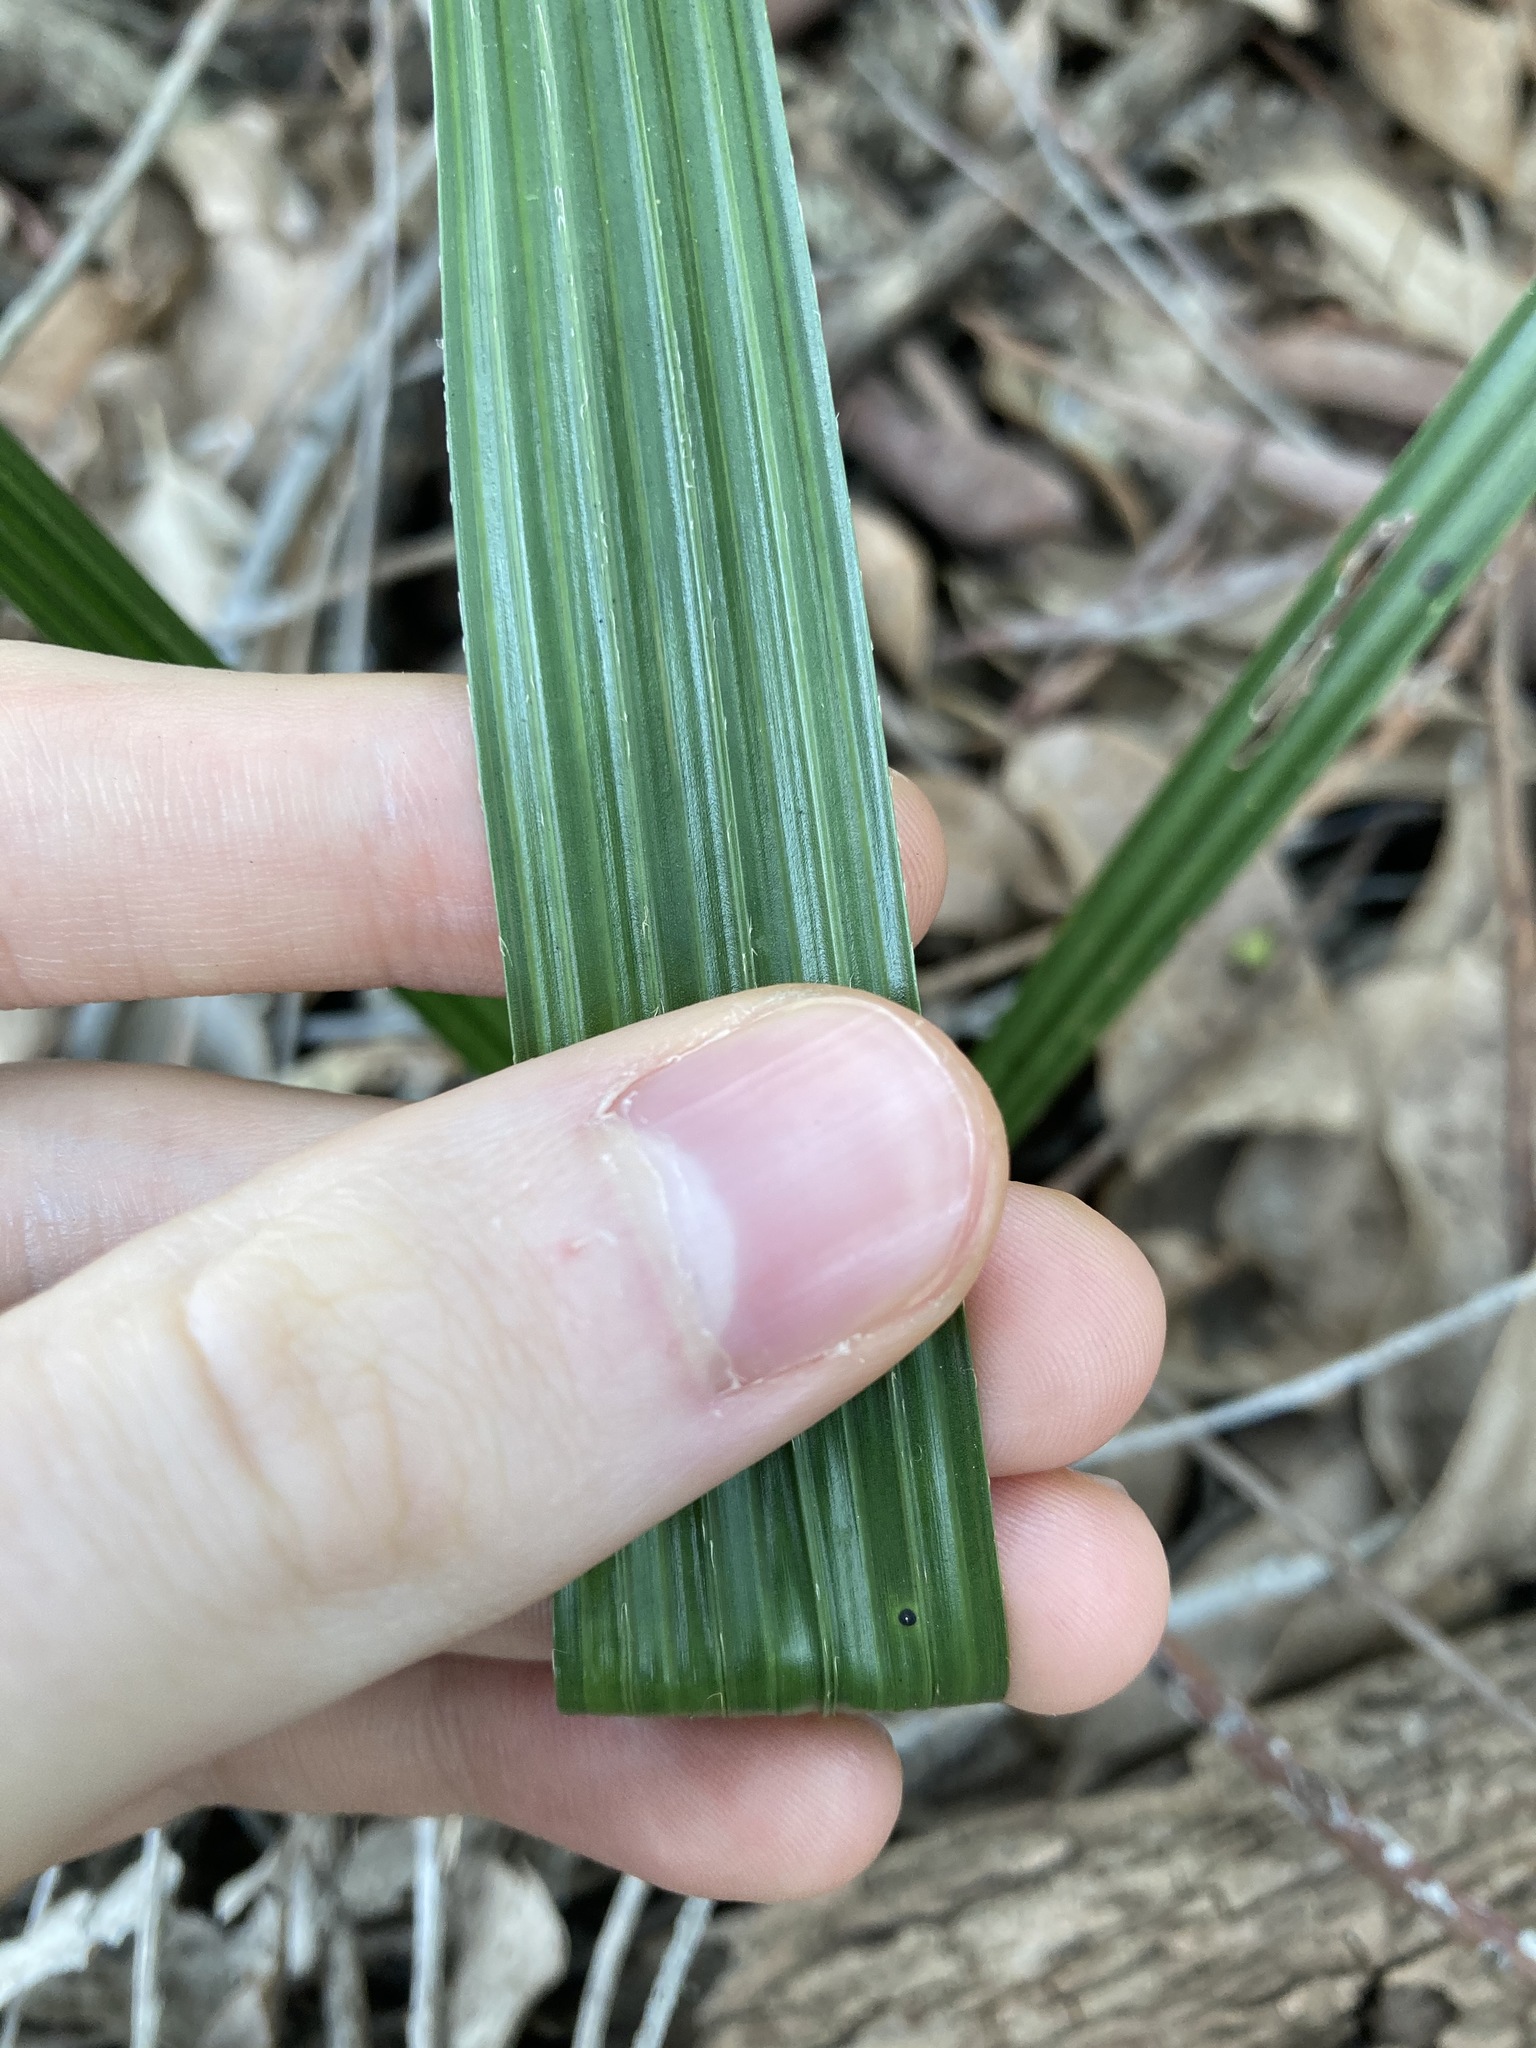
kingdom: Plantae
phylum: Tracheophyta
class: Liliopsida
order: Arecales
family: Arecaceae
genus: Syagrus
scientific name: Syagrus romanzoffiana
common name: Queen palm
